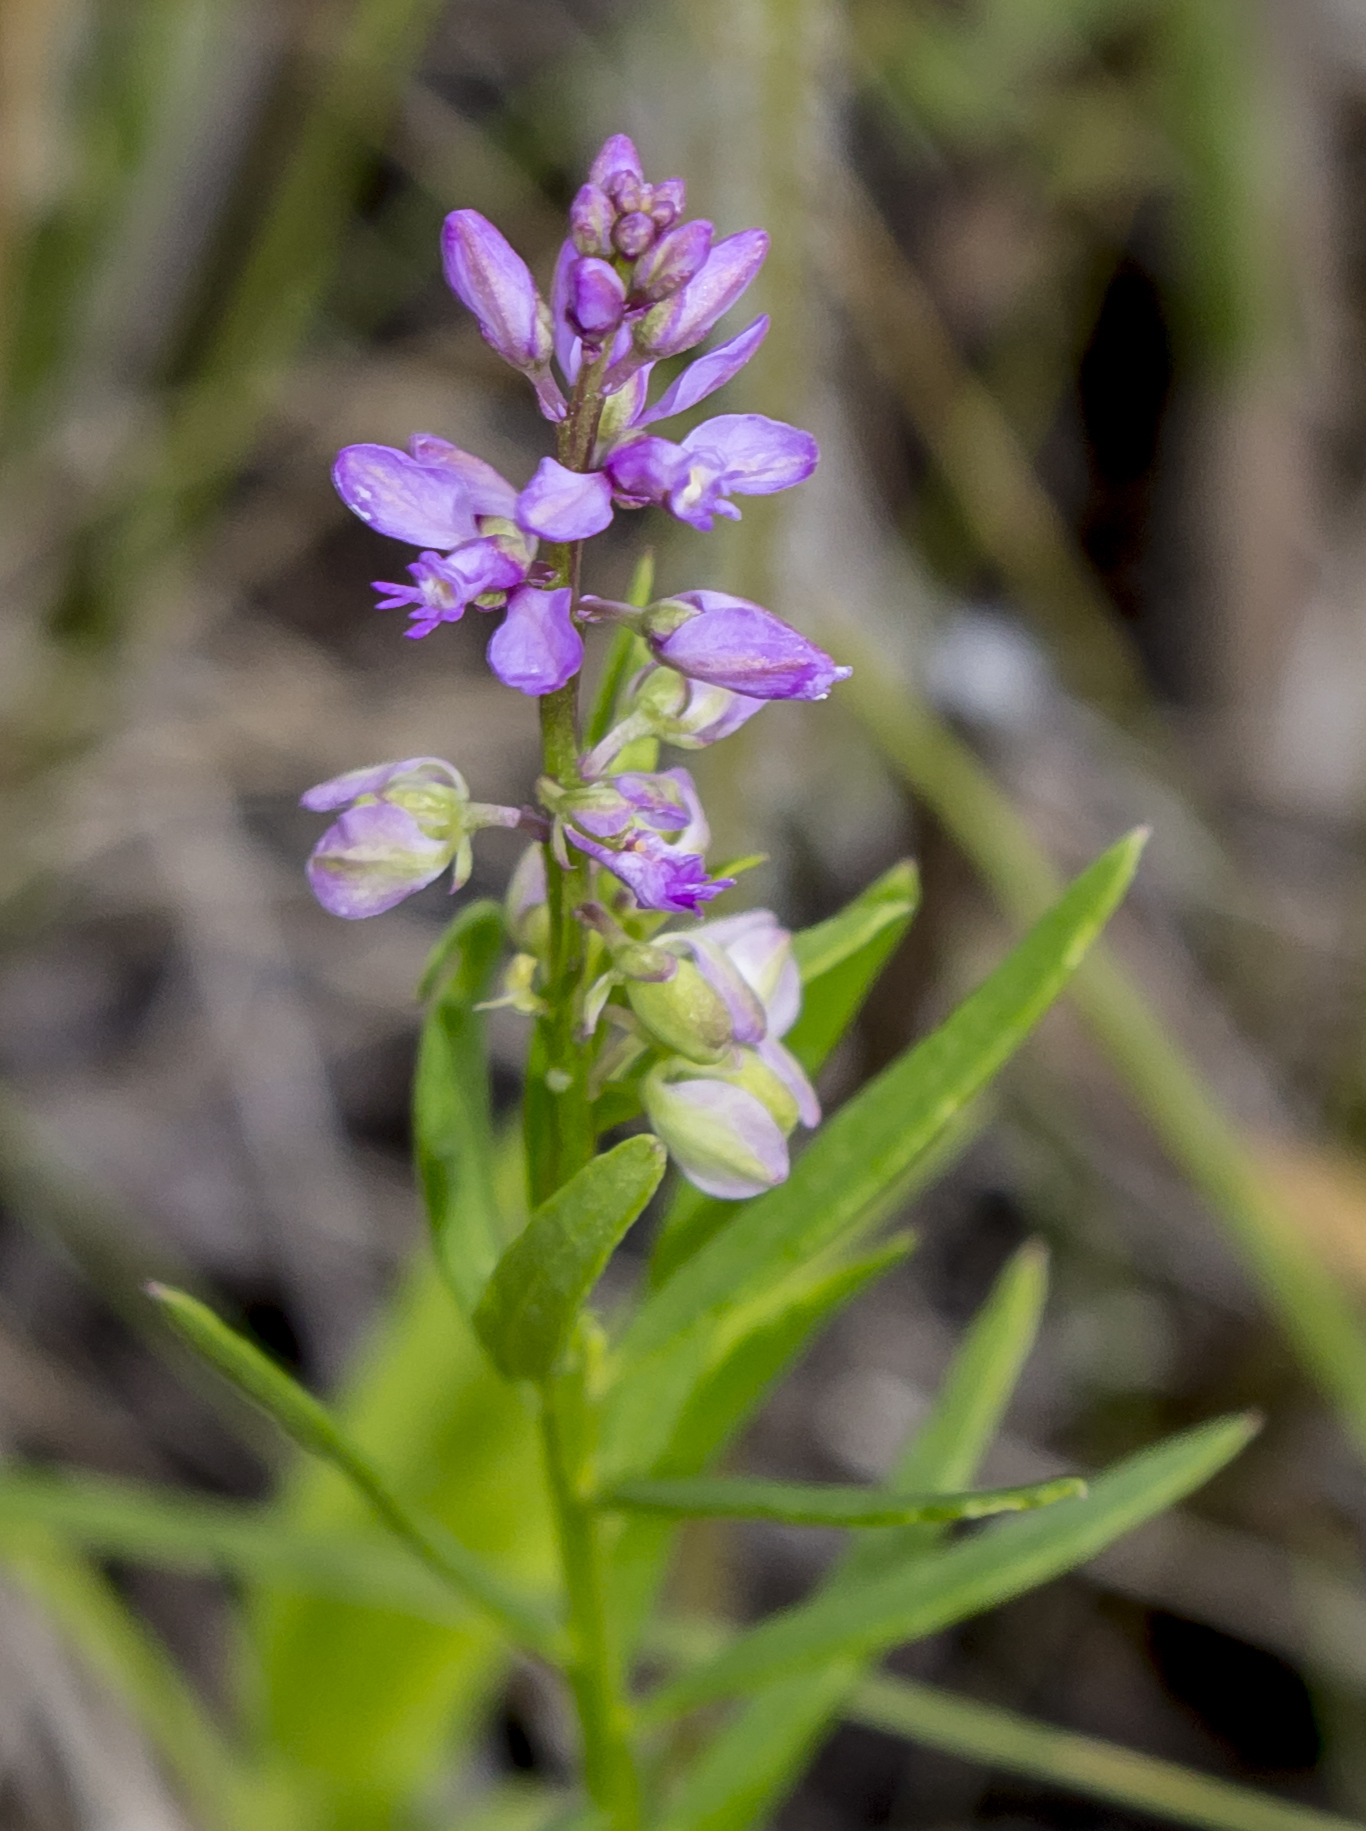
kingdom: Plantae
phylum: Tracheophyta
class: Magnoliopsida
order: Fabales
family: Polygalaceae
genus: Polygala
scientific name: Polygala polygama
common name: Bitter milkwort
